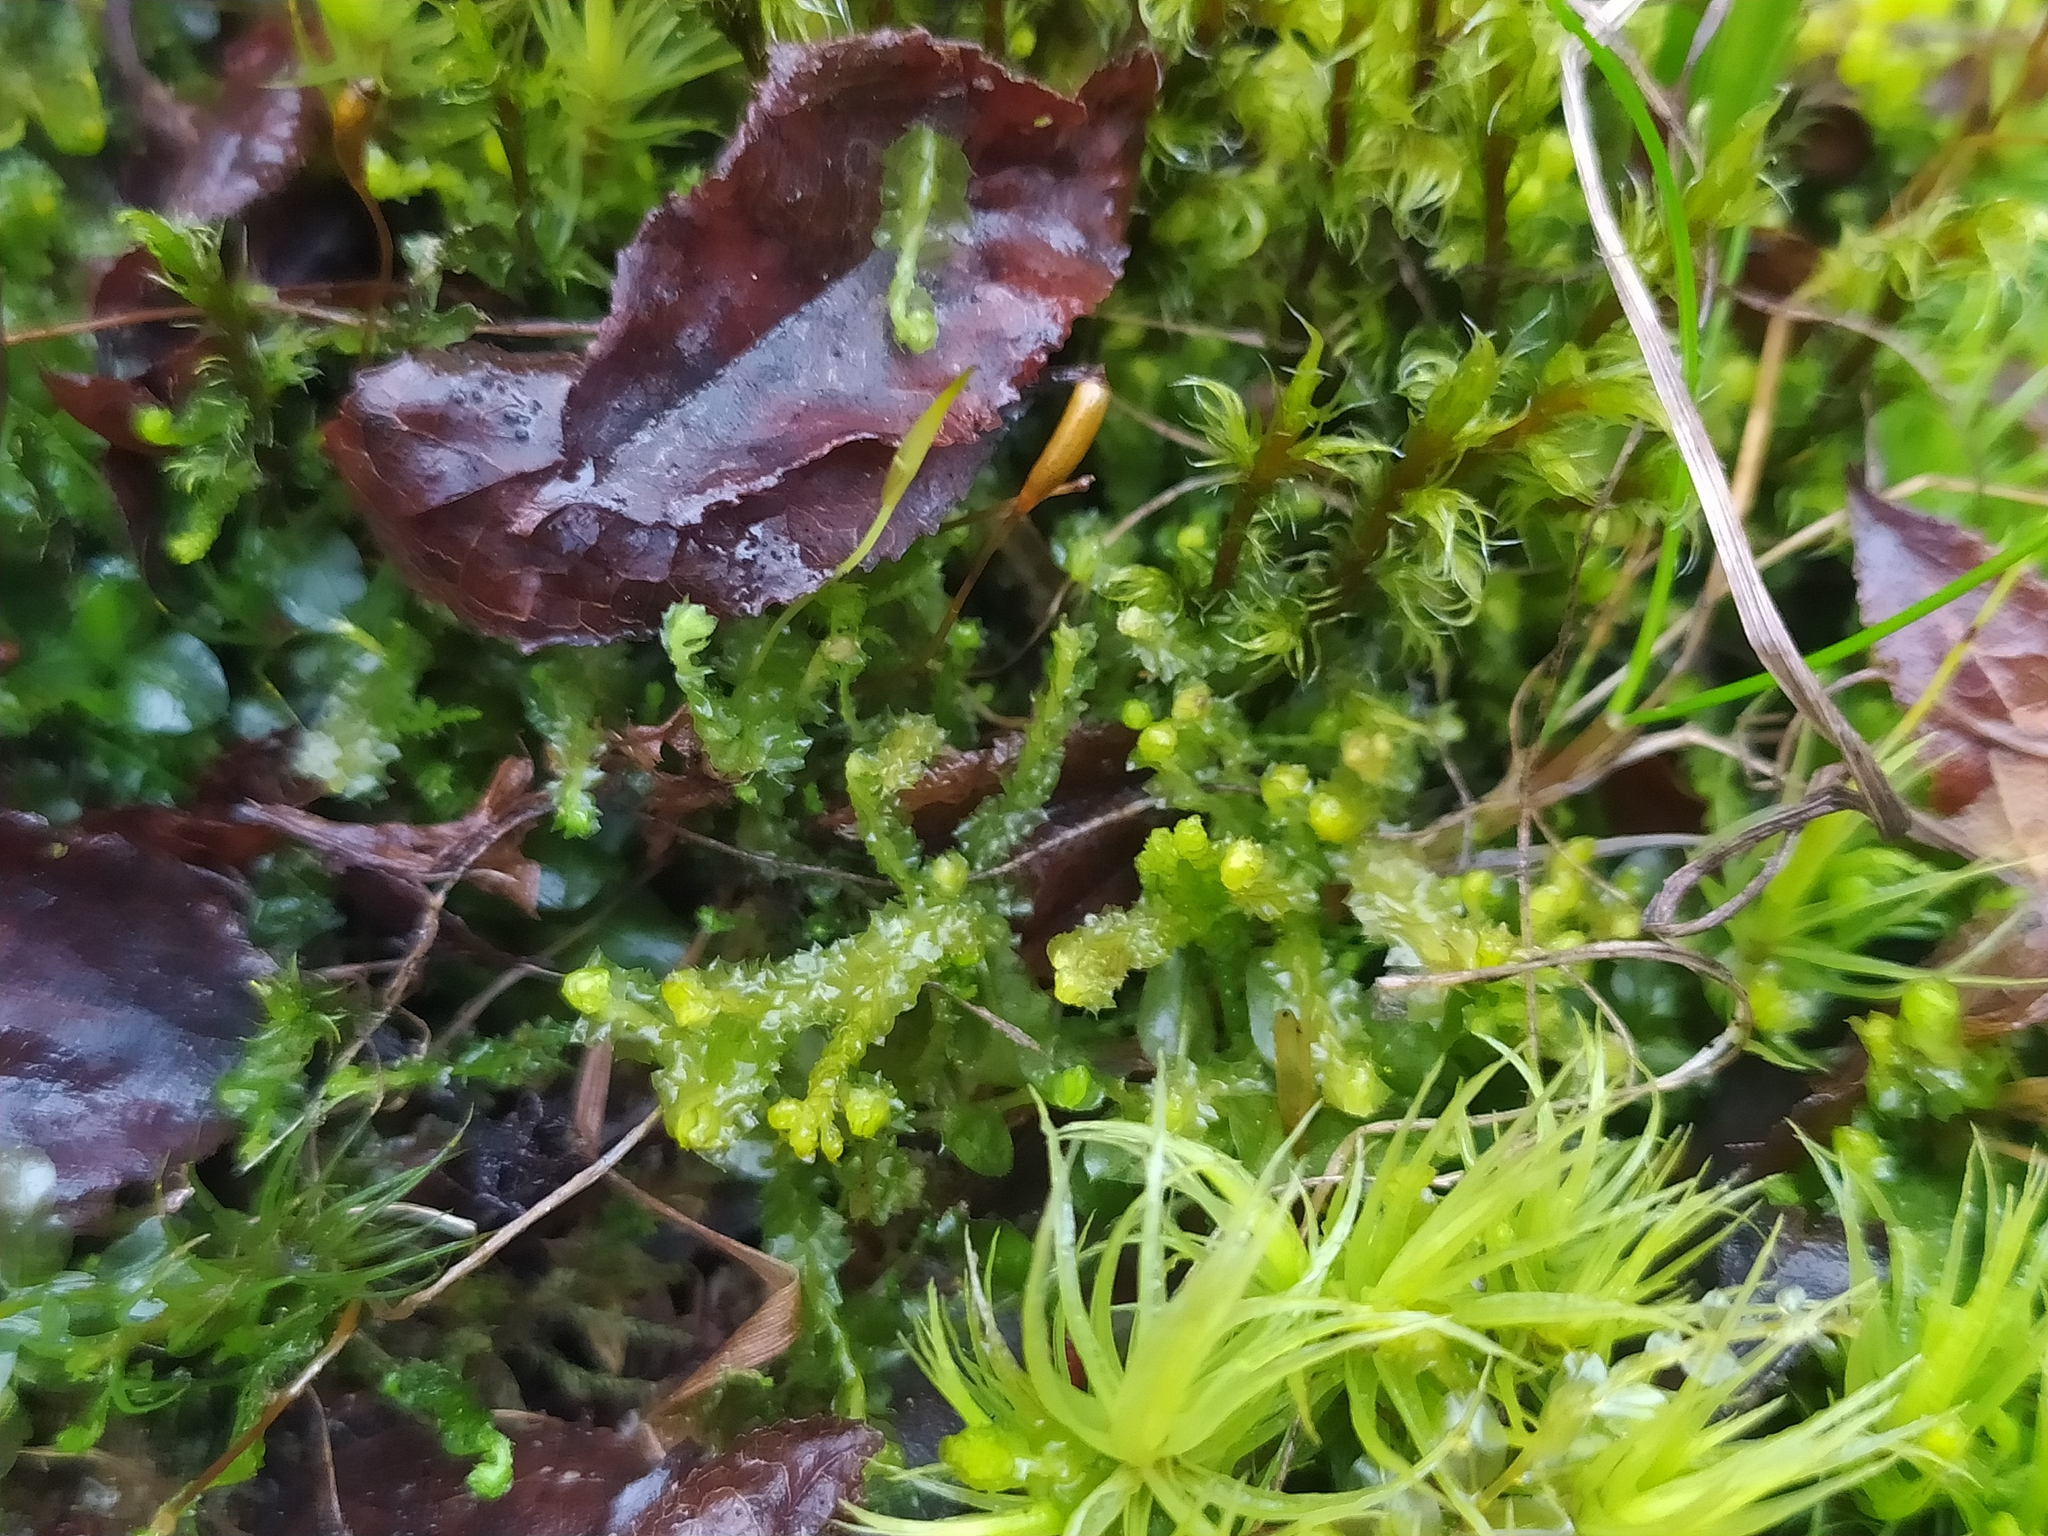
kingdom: Plantae
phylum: Marchantiophyta
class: Jungermanniopsida
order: Jungermanniales
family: Anastrophyllaceae
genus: Barbilophozia
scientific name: Barbilophozia hatcheri
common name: Hatcher s pawwort
